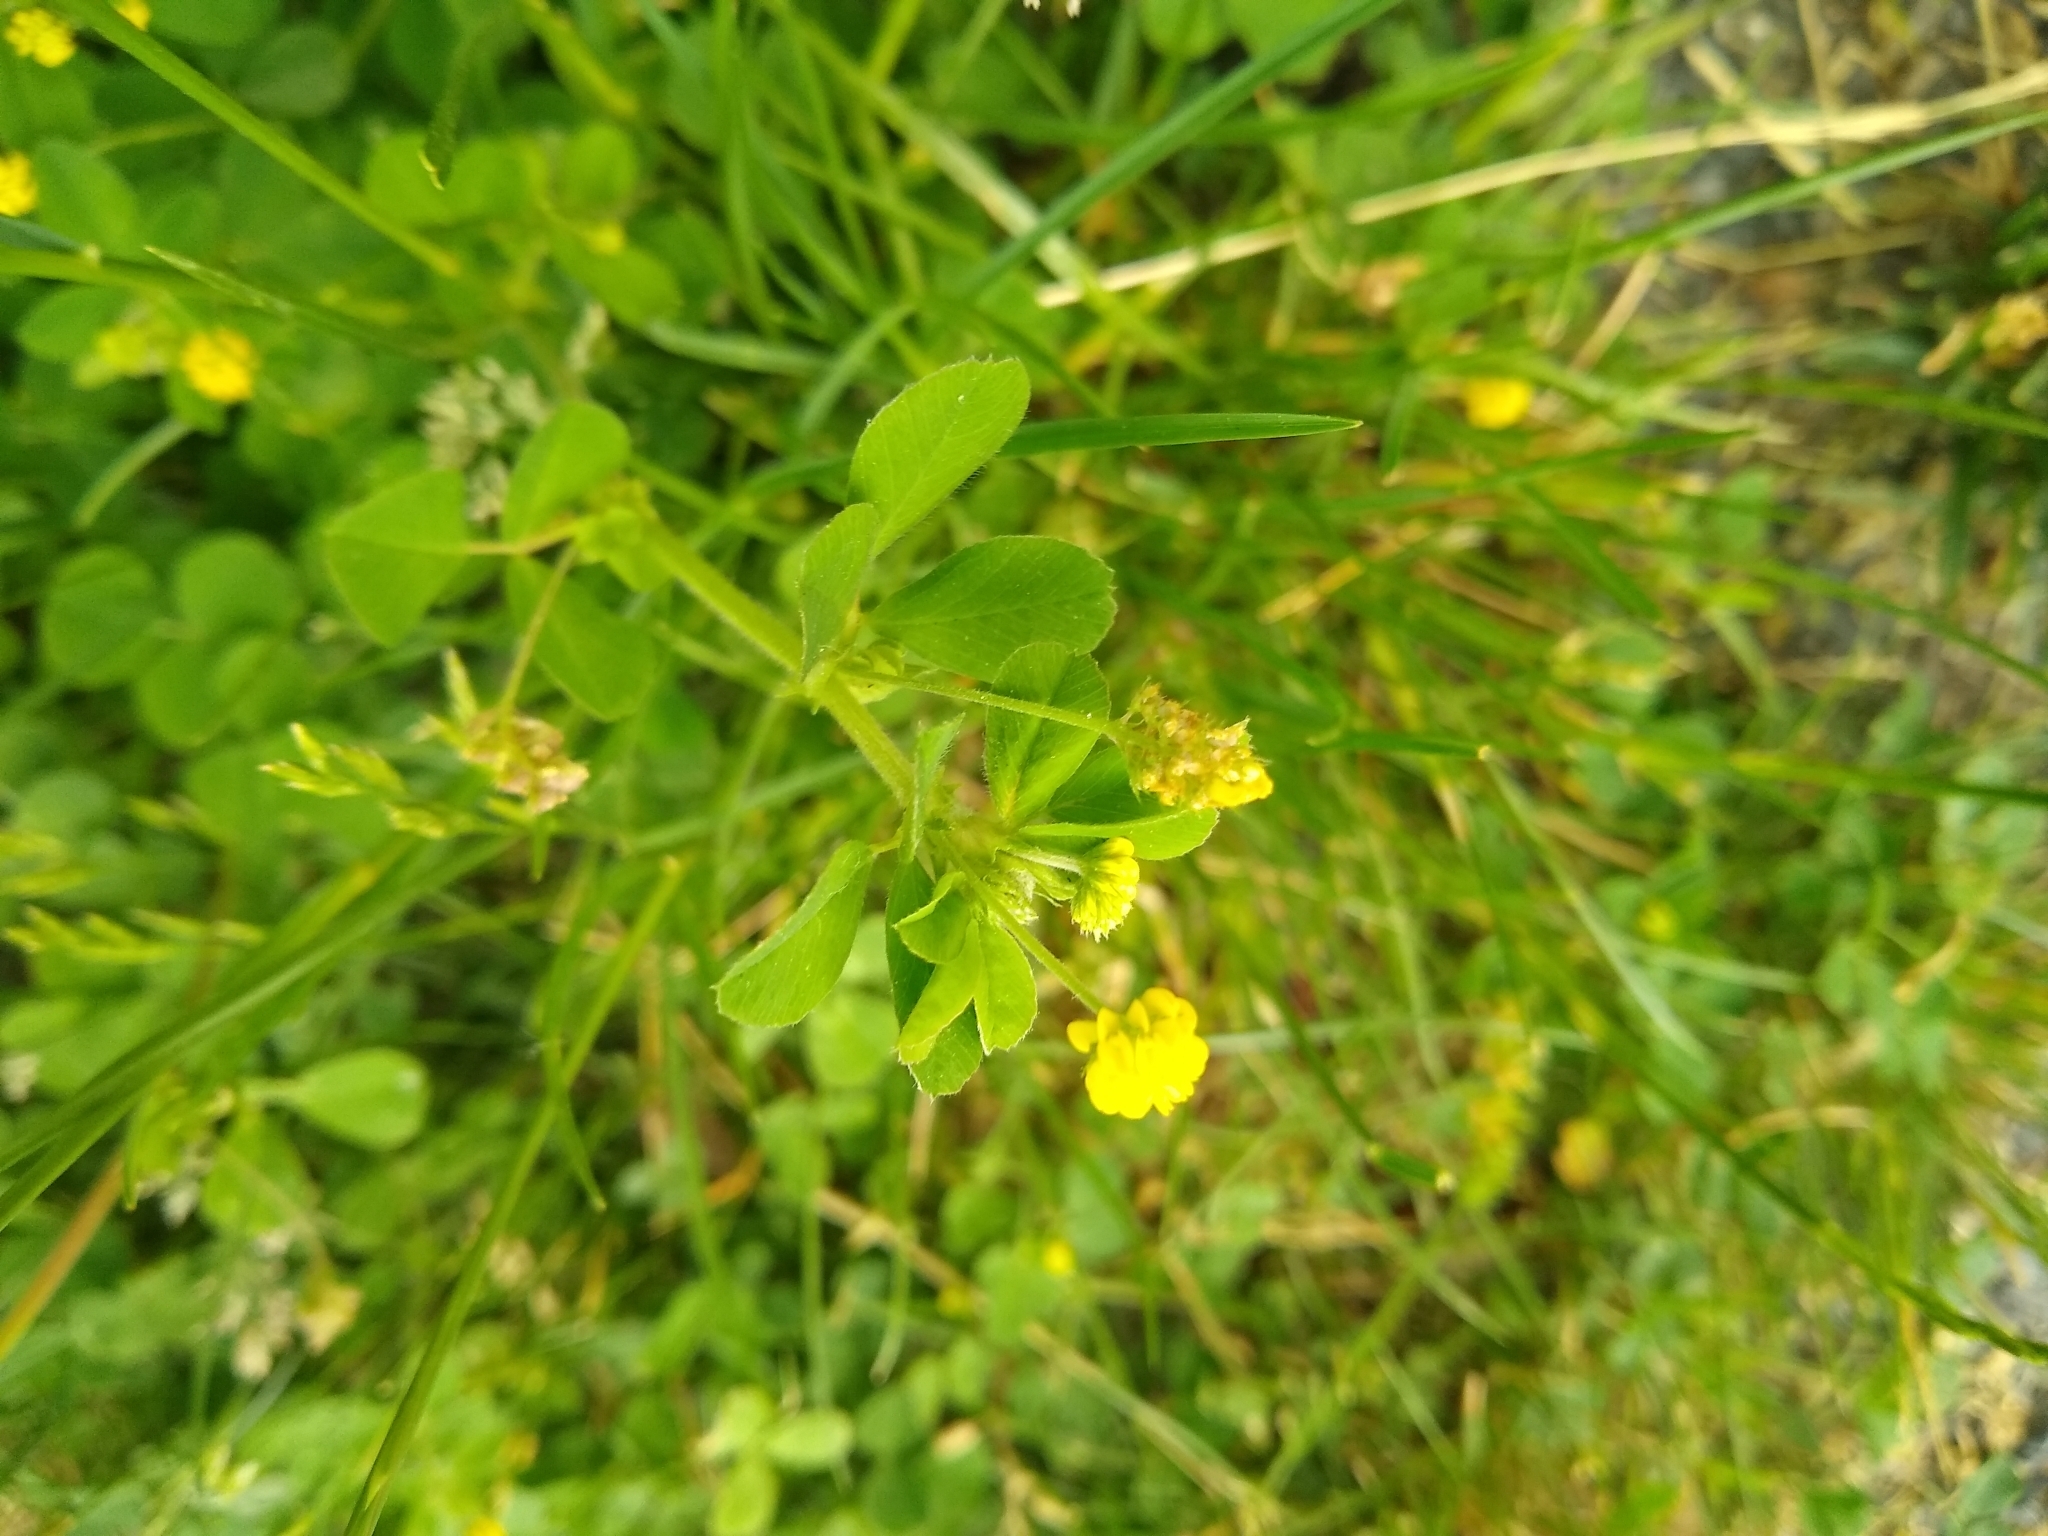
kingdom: Plantae
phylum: Tracheophyta
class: Magnoliopsida
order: Fabales
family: Fabaceae
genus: Medicago
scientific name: Medicago lupulina
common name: Black medick
